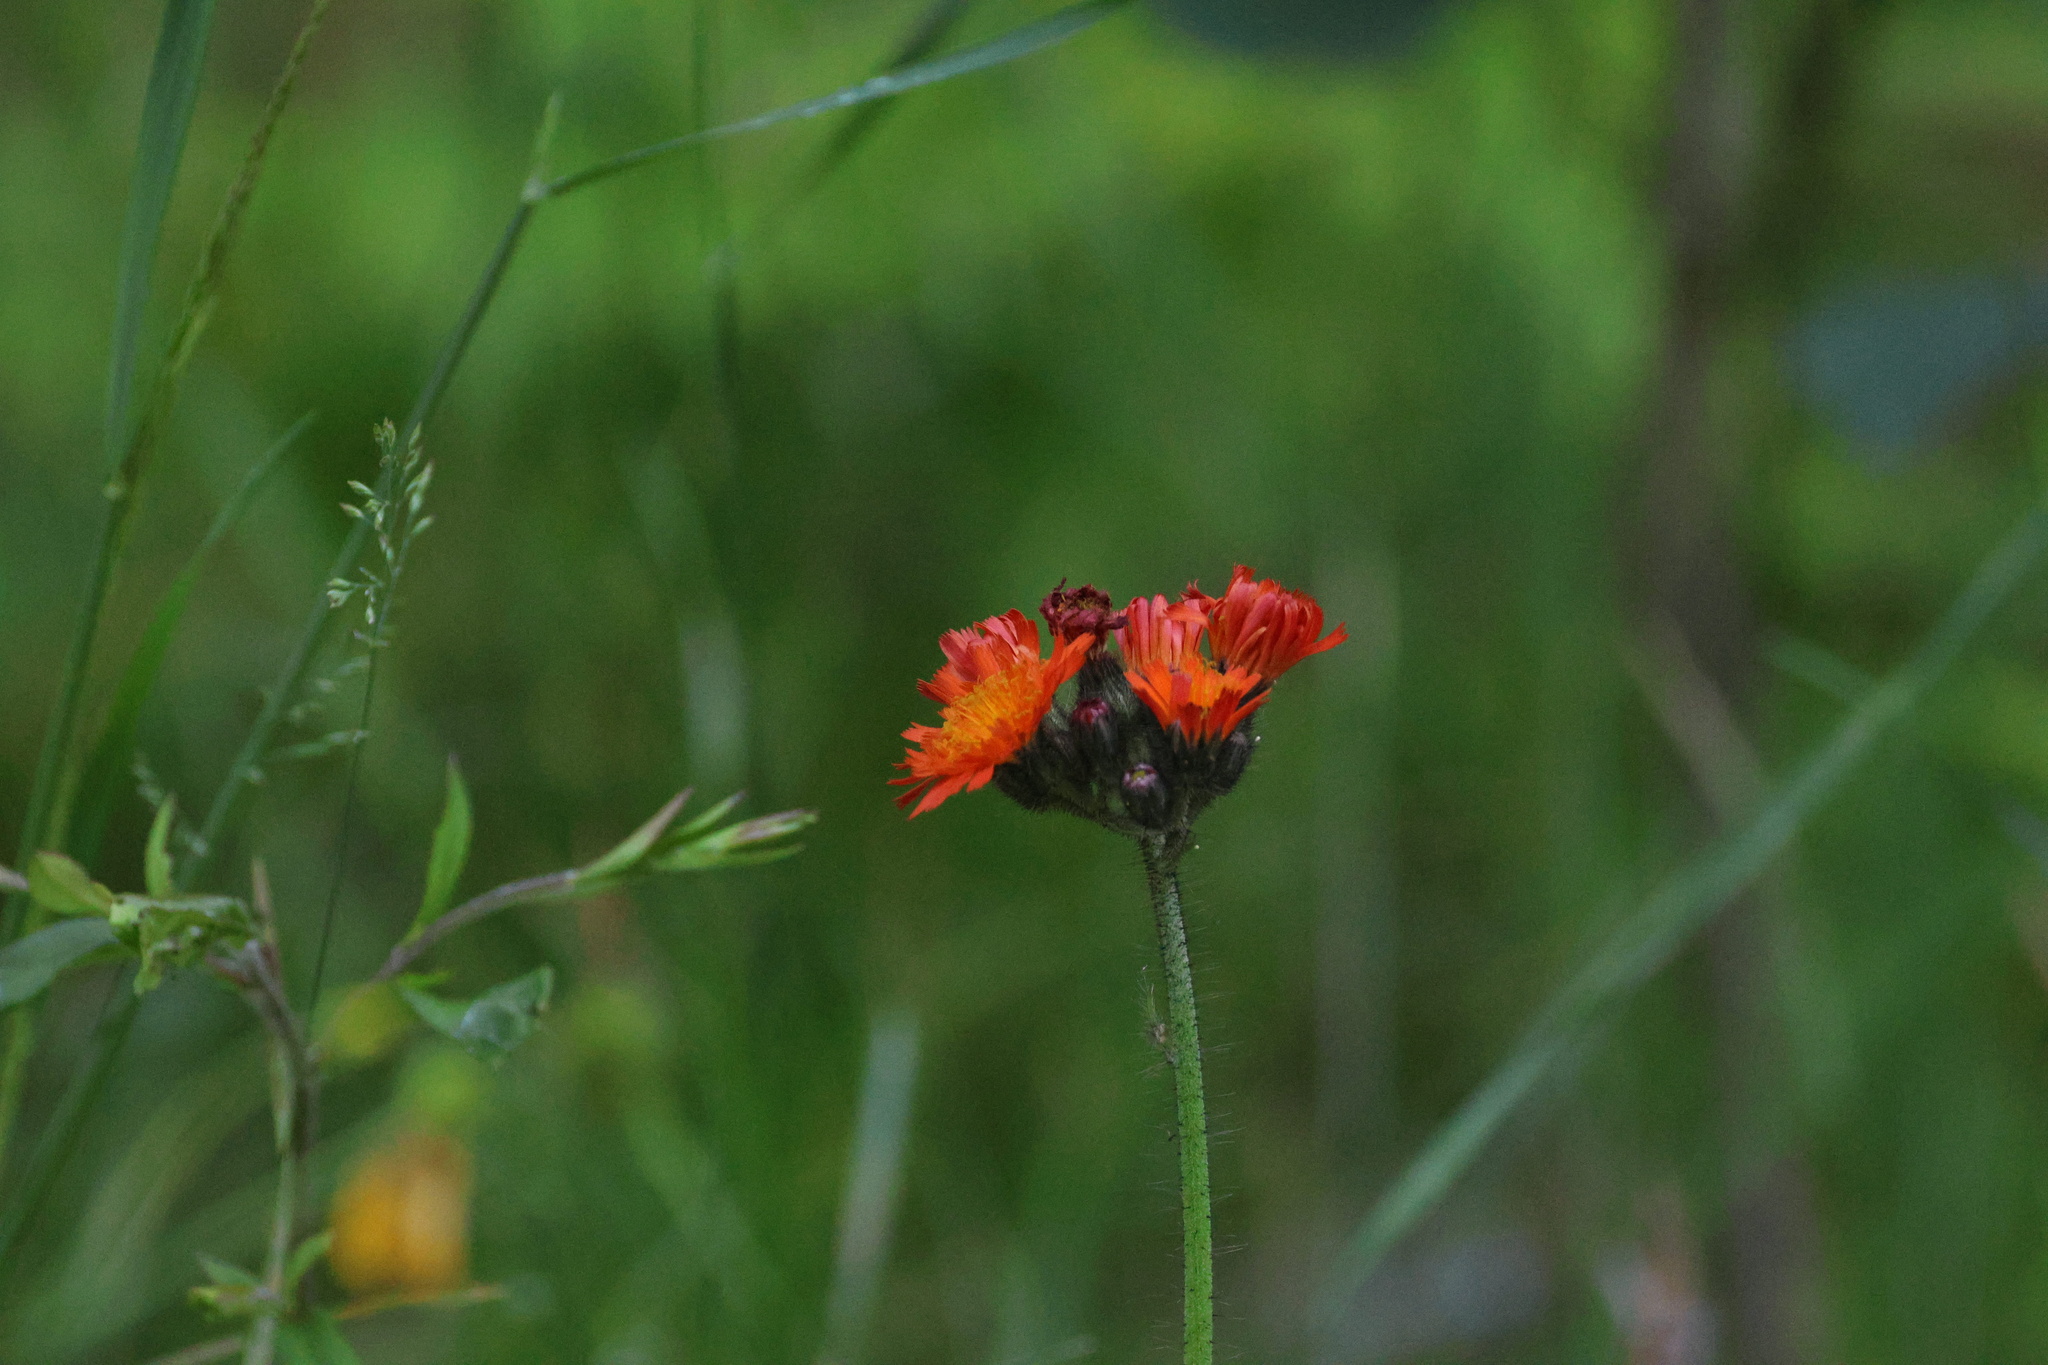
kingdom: Plantae
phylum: Tracheophyta
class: Magnoliopsida
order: Asterales
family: Asteraceae
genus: Pilosella
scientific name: Pilosella aurantiaca
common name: Fox-and-cubs
